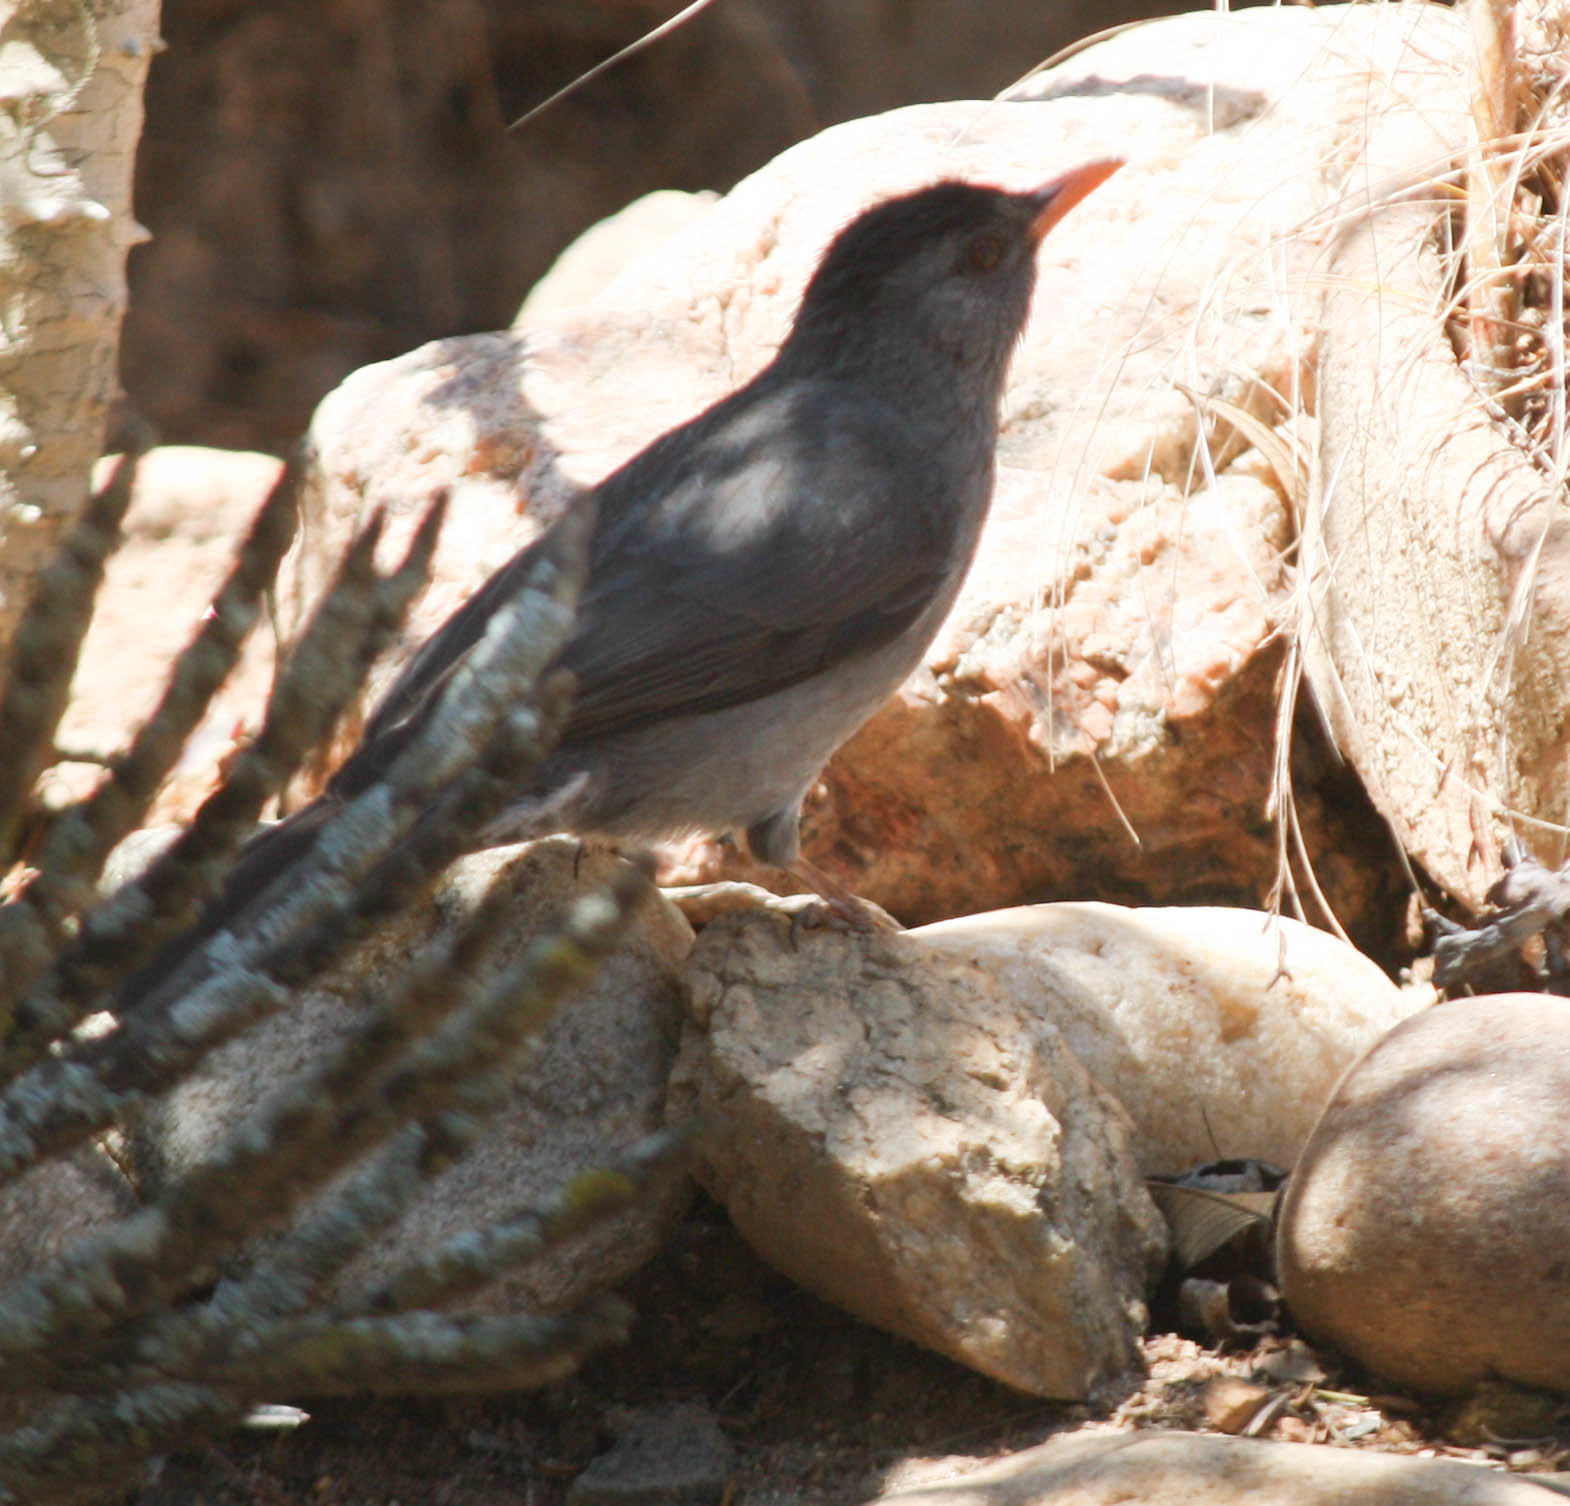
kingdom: Animalia
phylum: Chordata
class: Aves
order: Passeriformes
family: Pycnonotidae
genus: Hypsipetes
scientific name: Hypsipetes madagascariensis
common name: Malagasy bulbul
